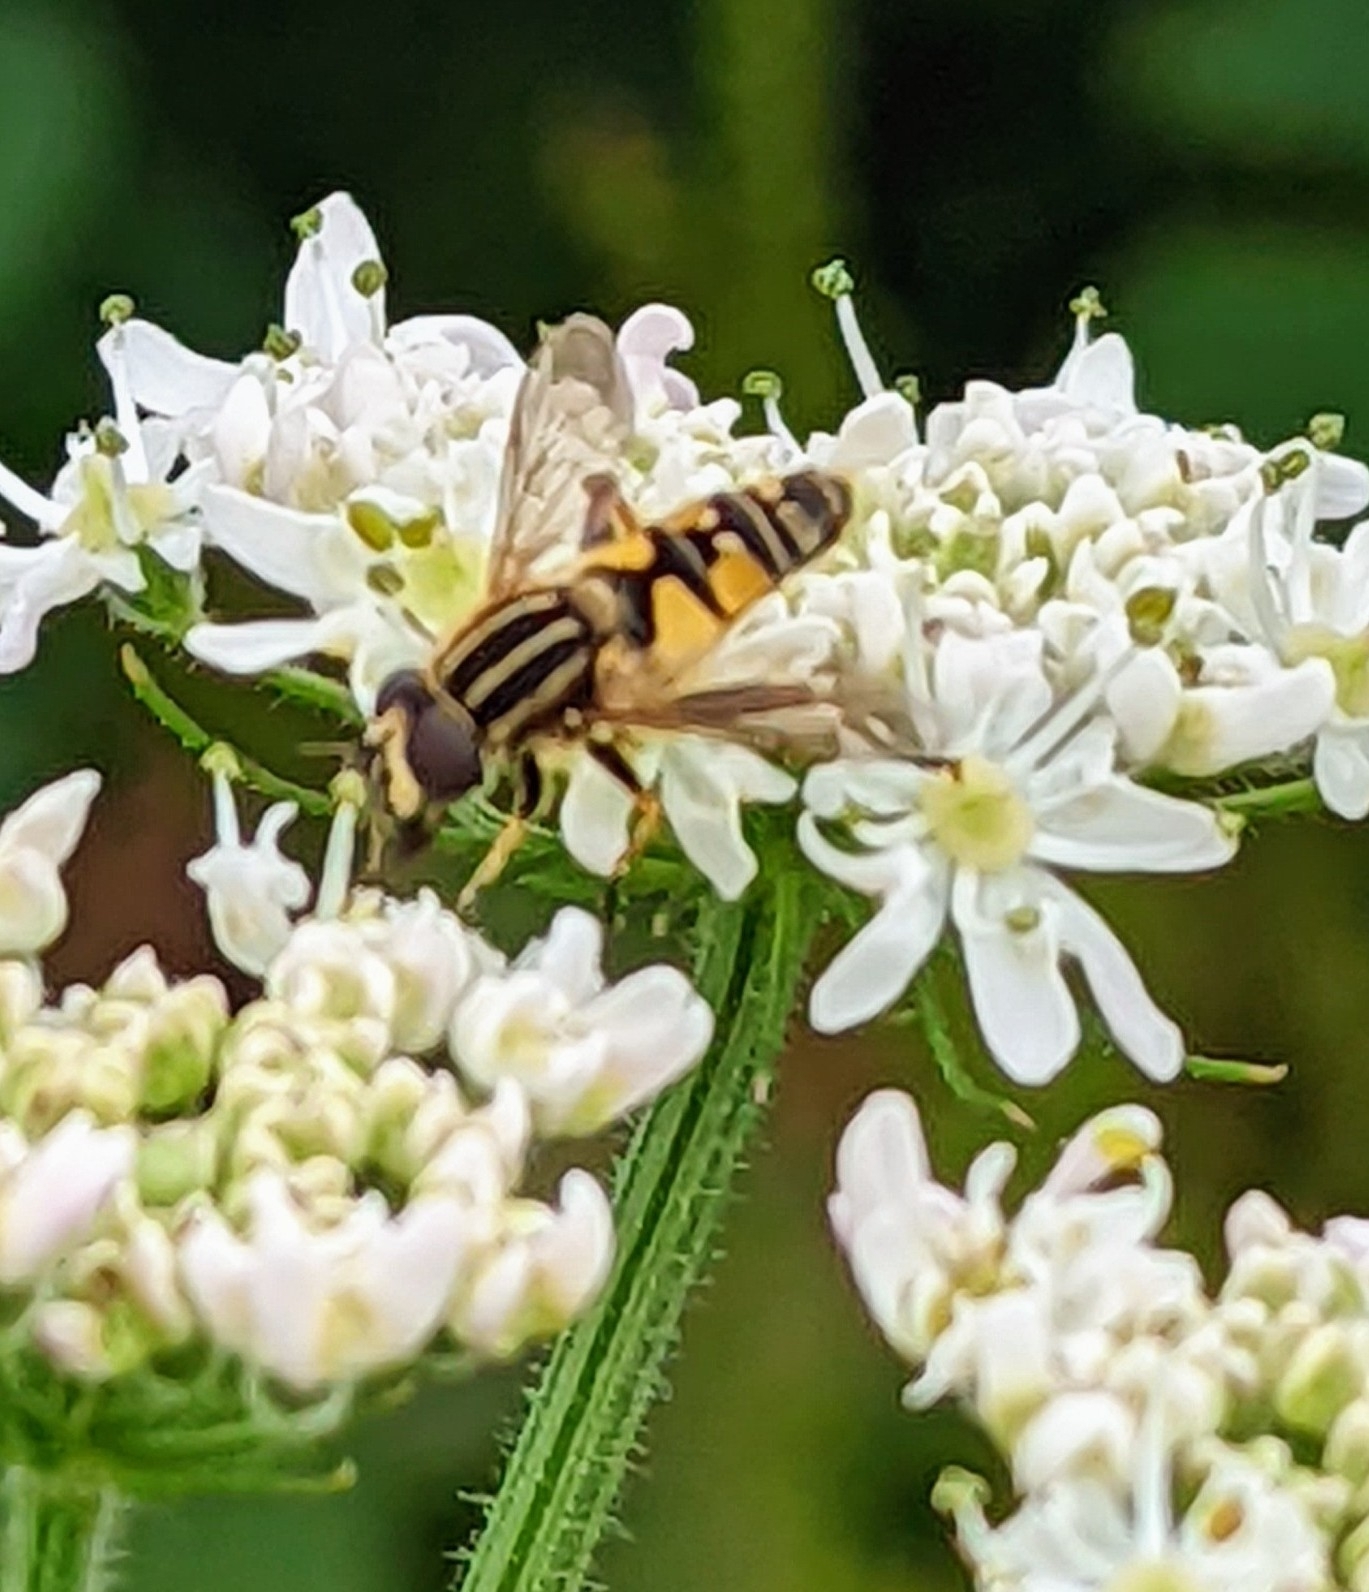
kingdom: Animalia
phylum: Arthropoda
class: Insecta
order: Diptera
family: Syrphidae
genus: Helophilus
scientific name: Helophilus pendulus
